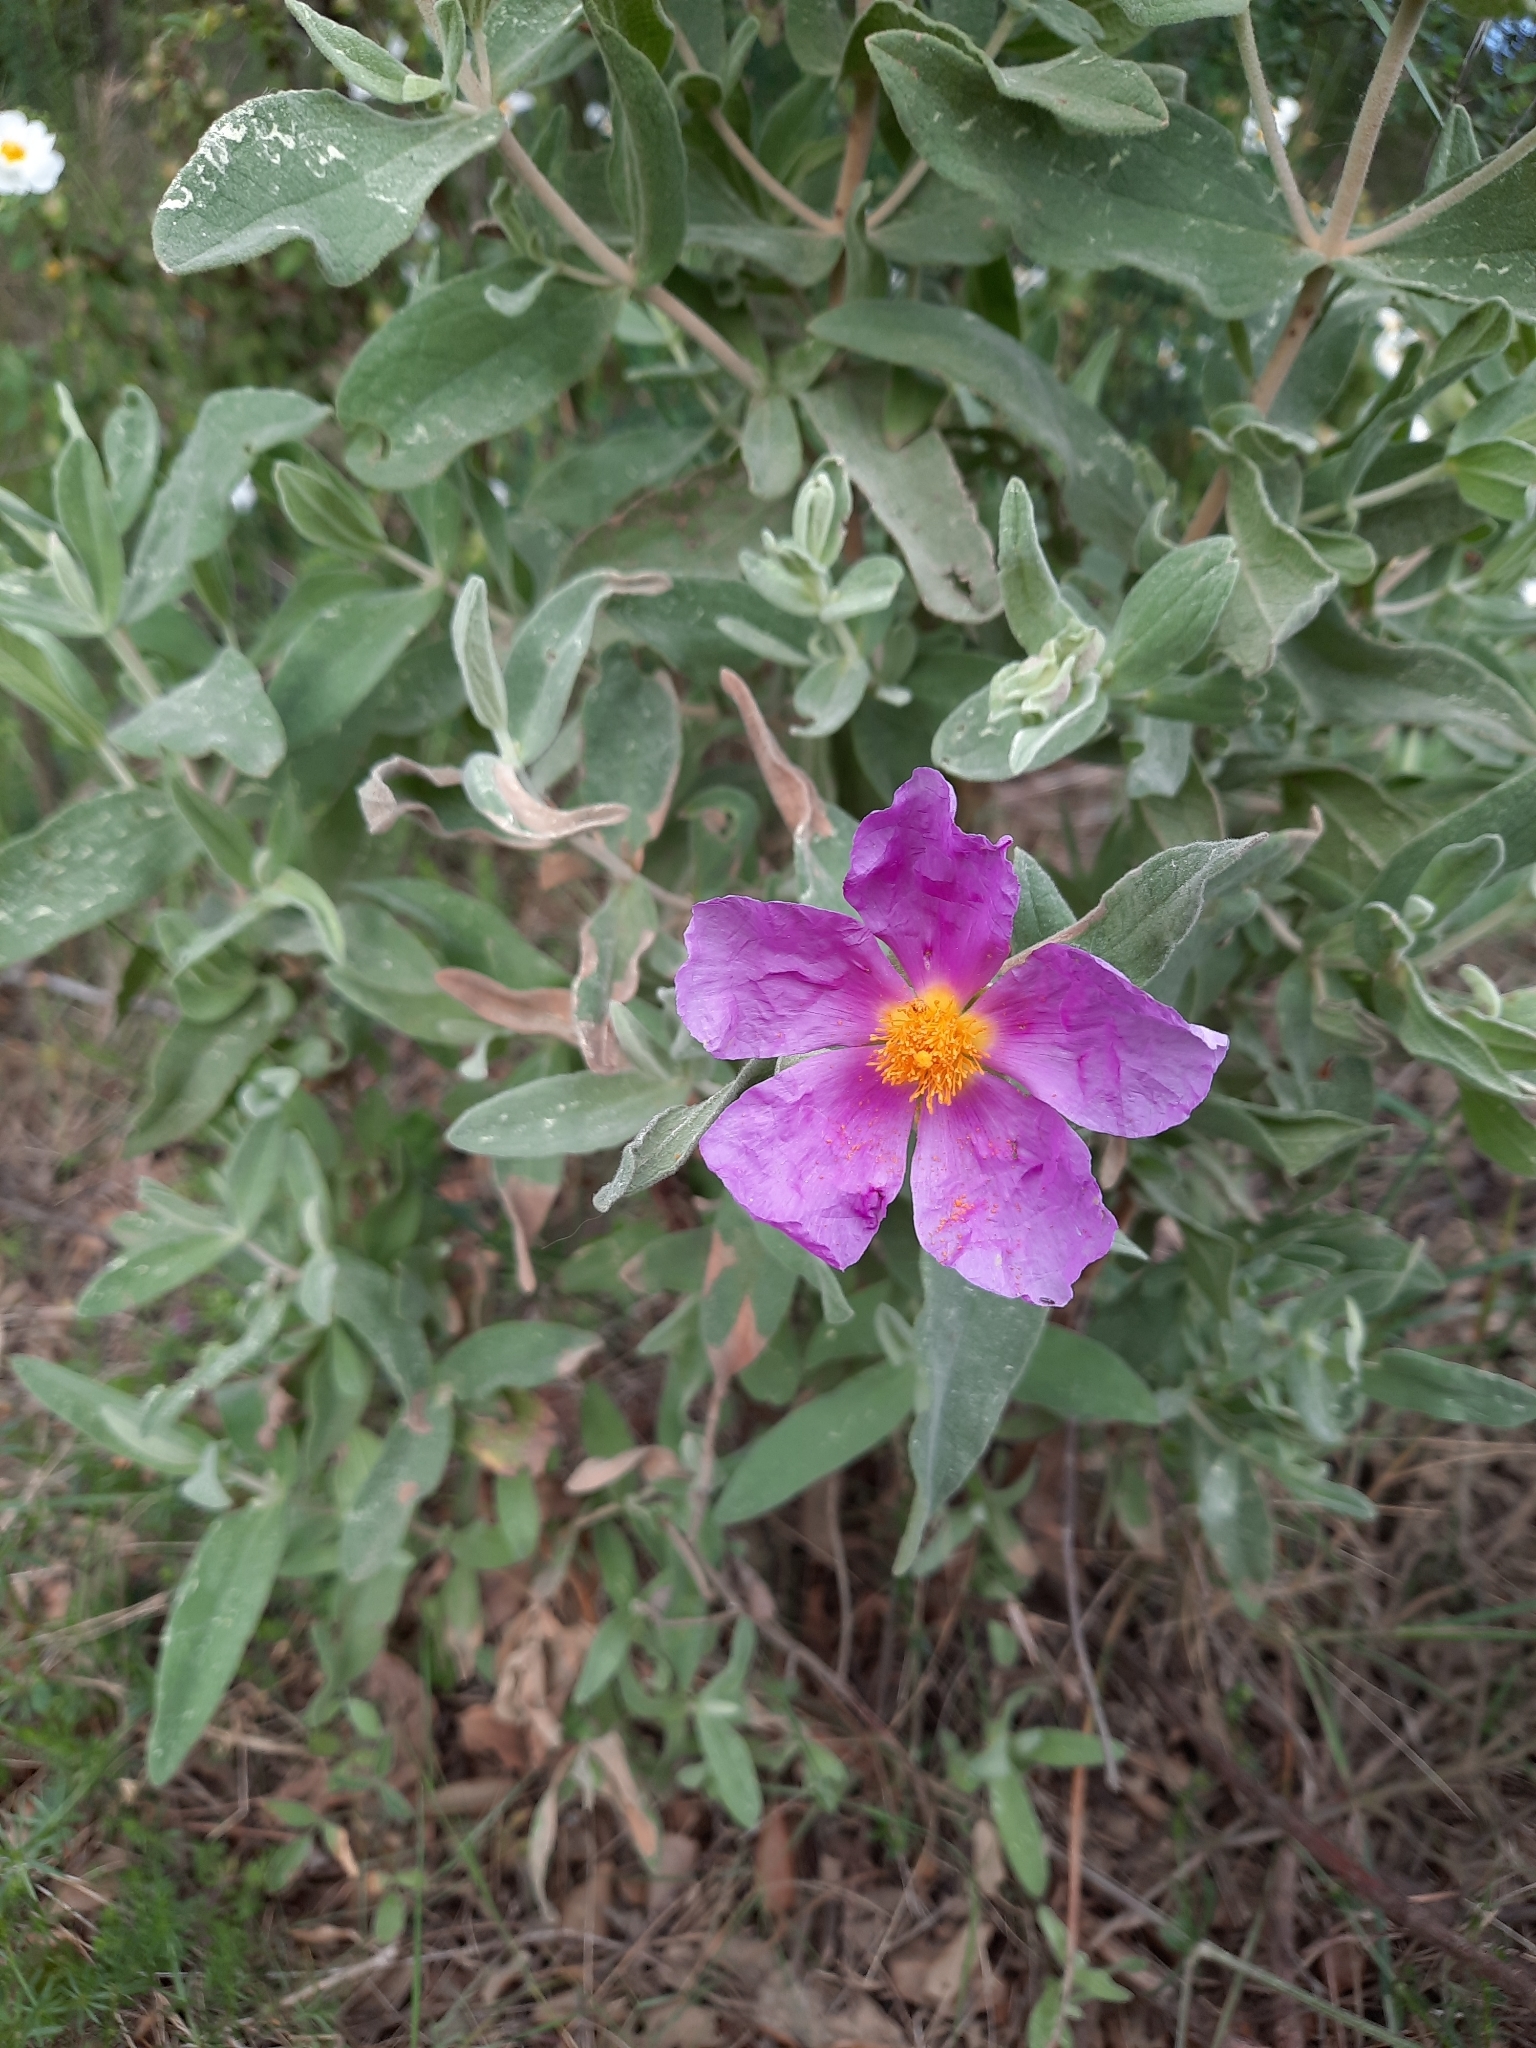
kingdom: Plantae
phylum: Tracheophyta
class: Magnoliopsida
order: Malvales
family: Cistaceae
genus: Cistus
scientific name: Cistus albidus
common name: White-leaf rock-rose
